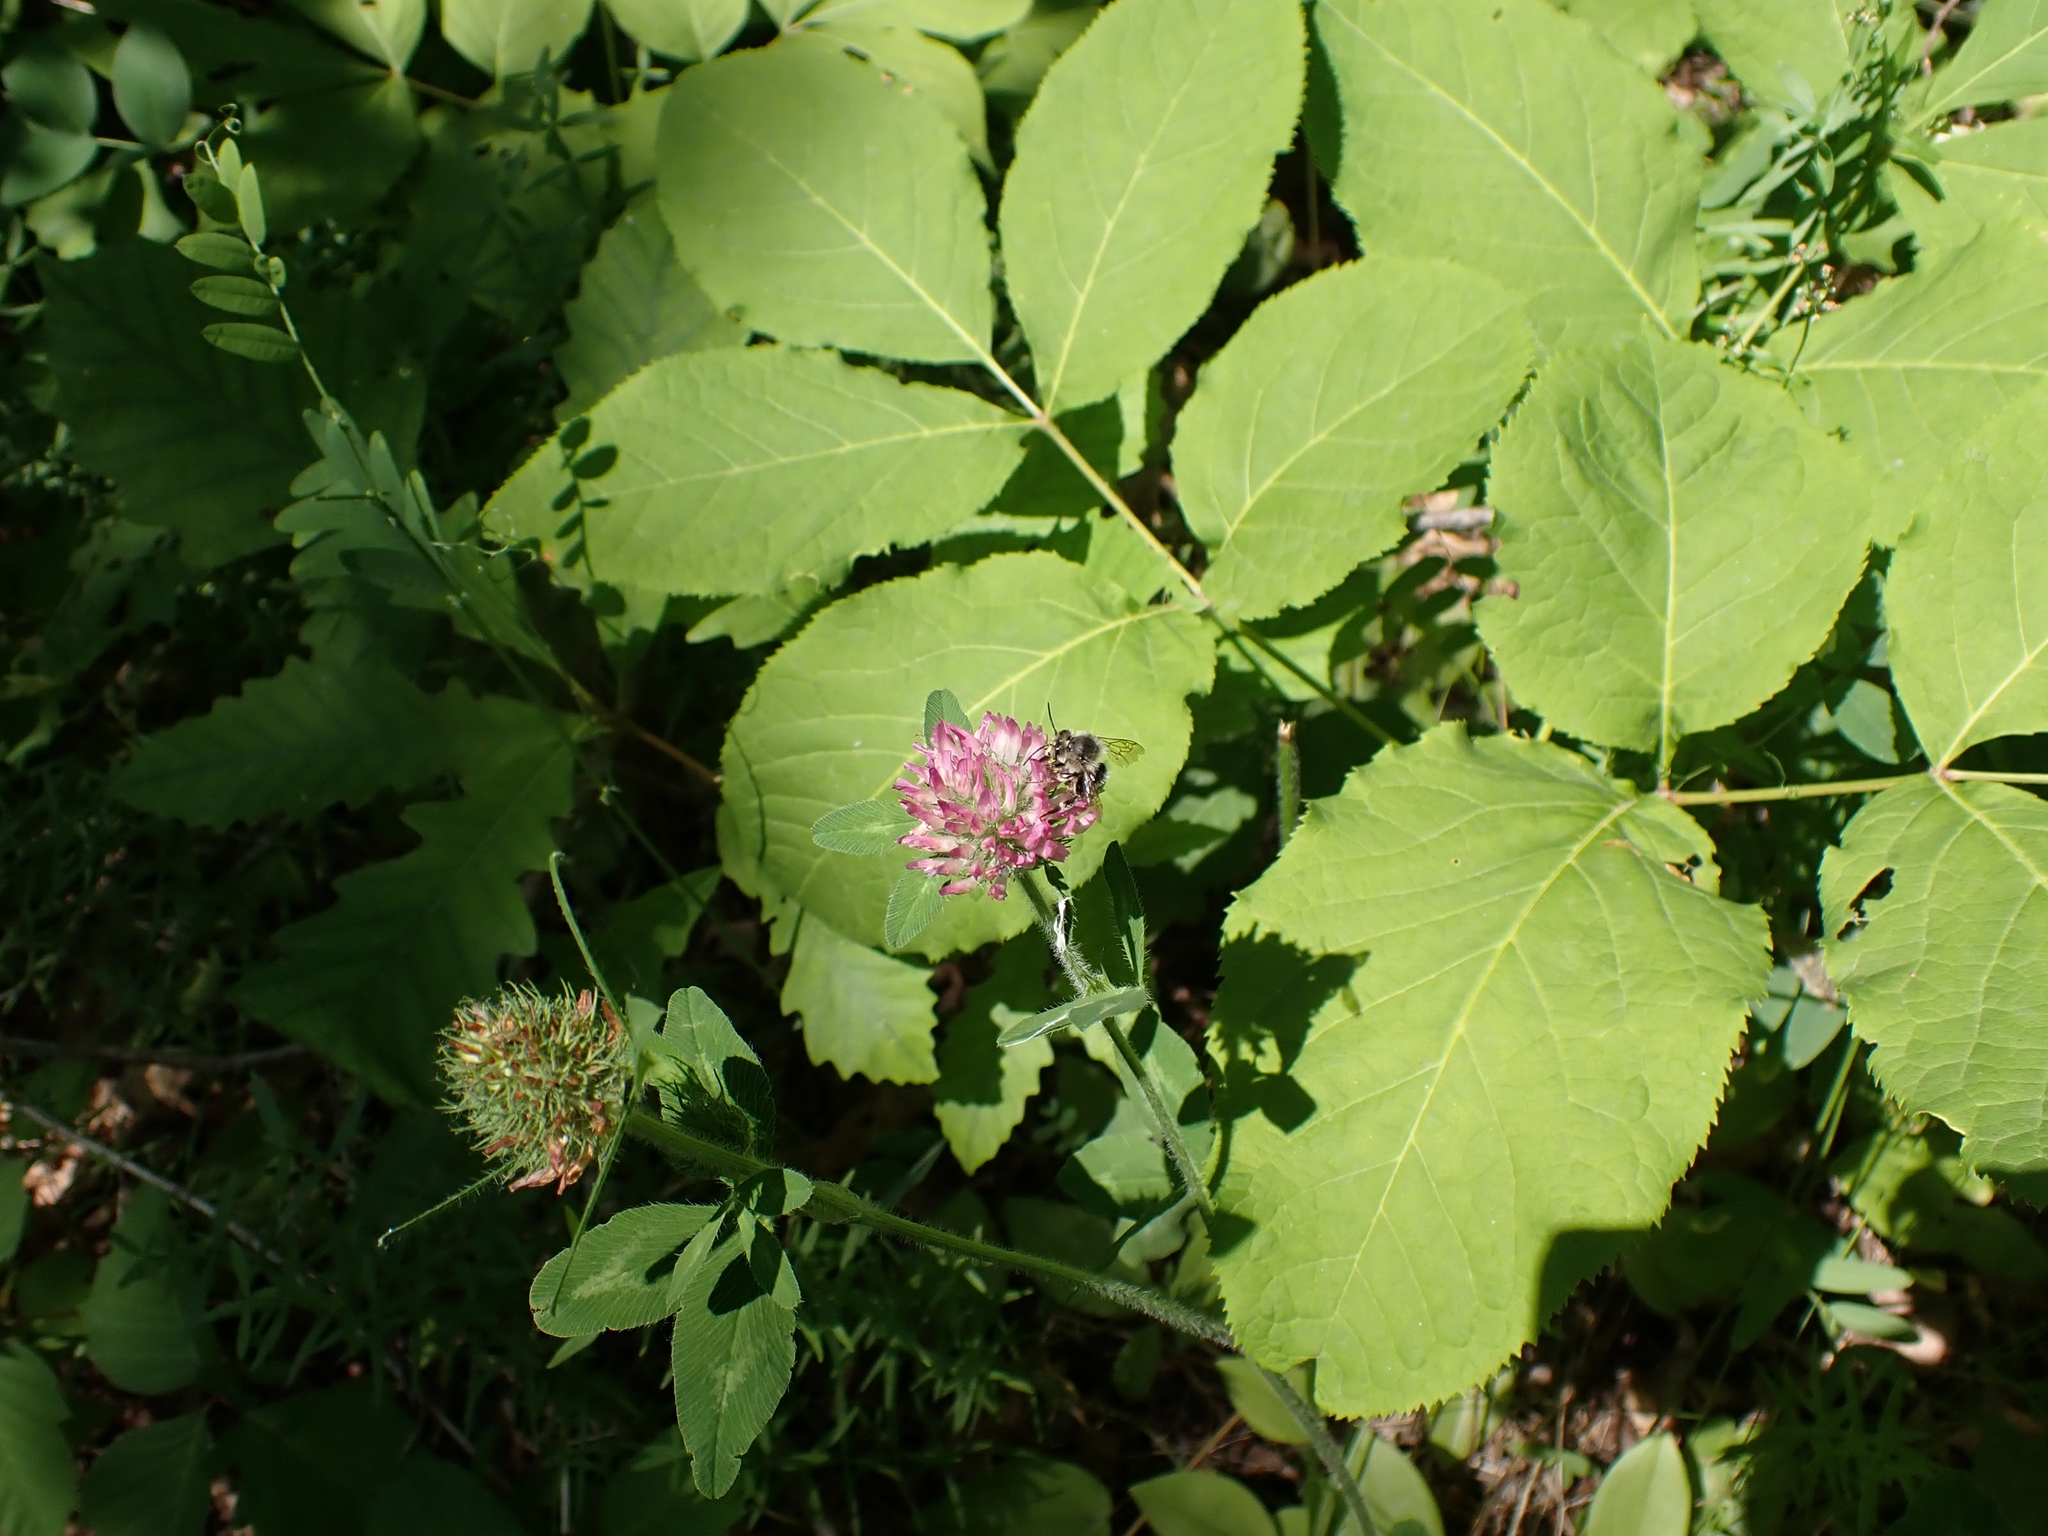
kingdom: Plantae
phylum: Tracheophyta
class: Magnoliopsida
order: Fabales
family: Fabaceae
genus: Trifolium
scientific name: Trifolium pratense
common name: Red clover
